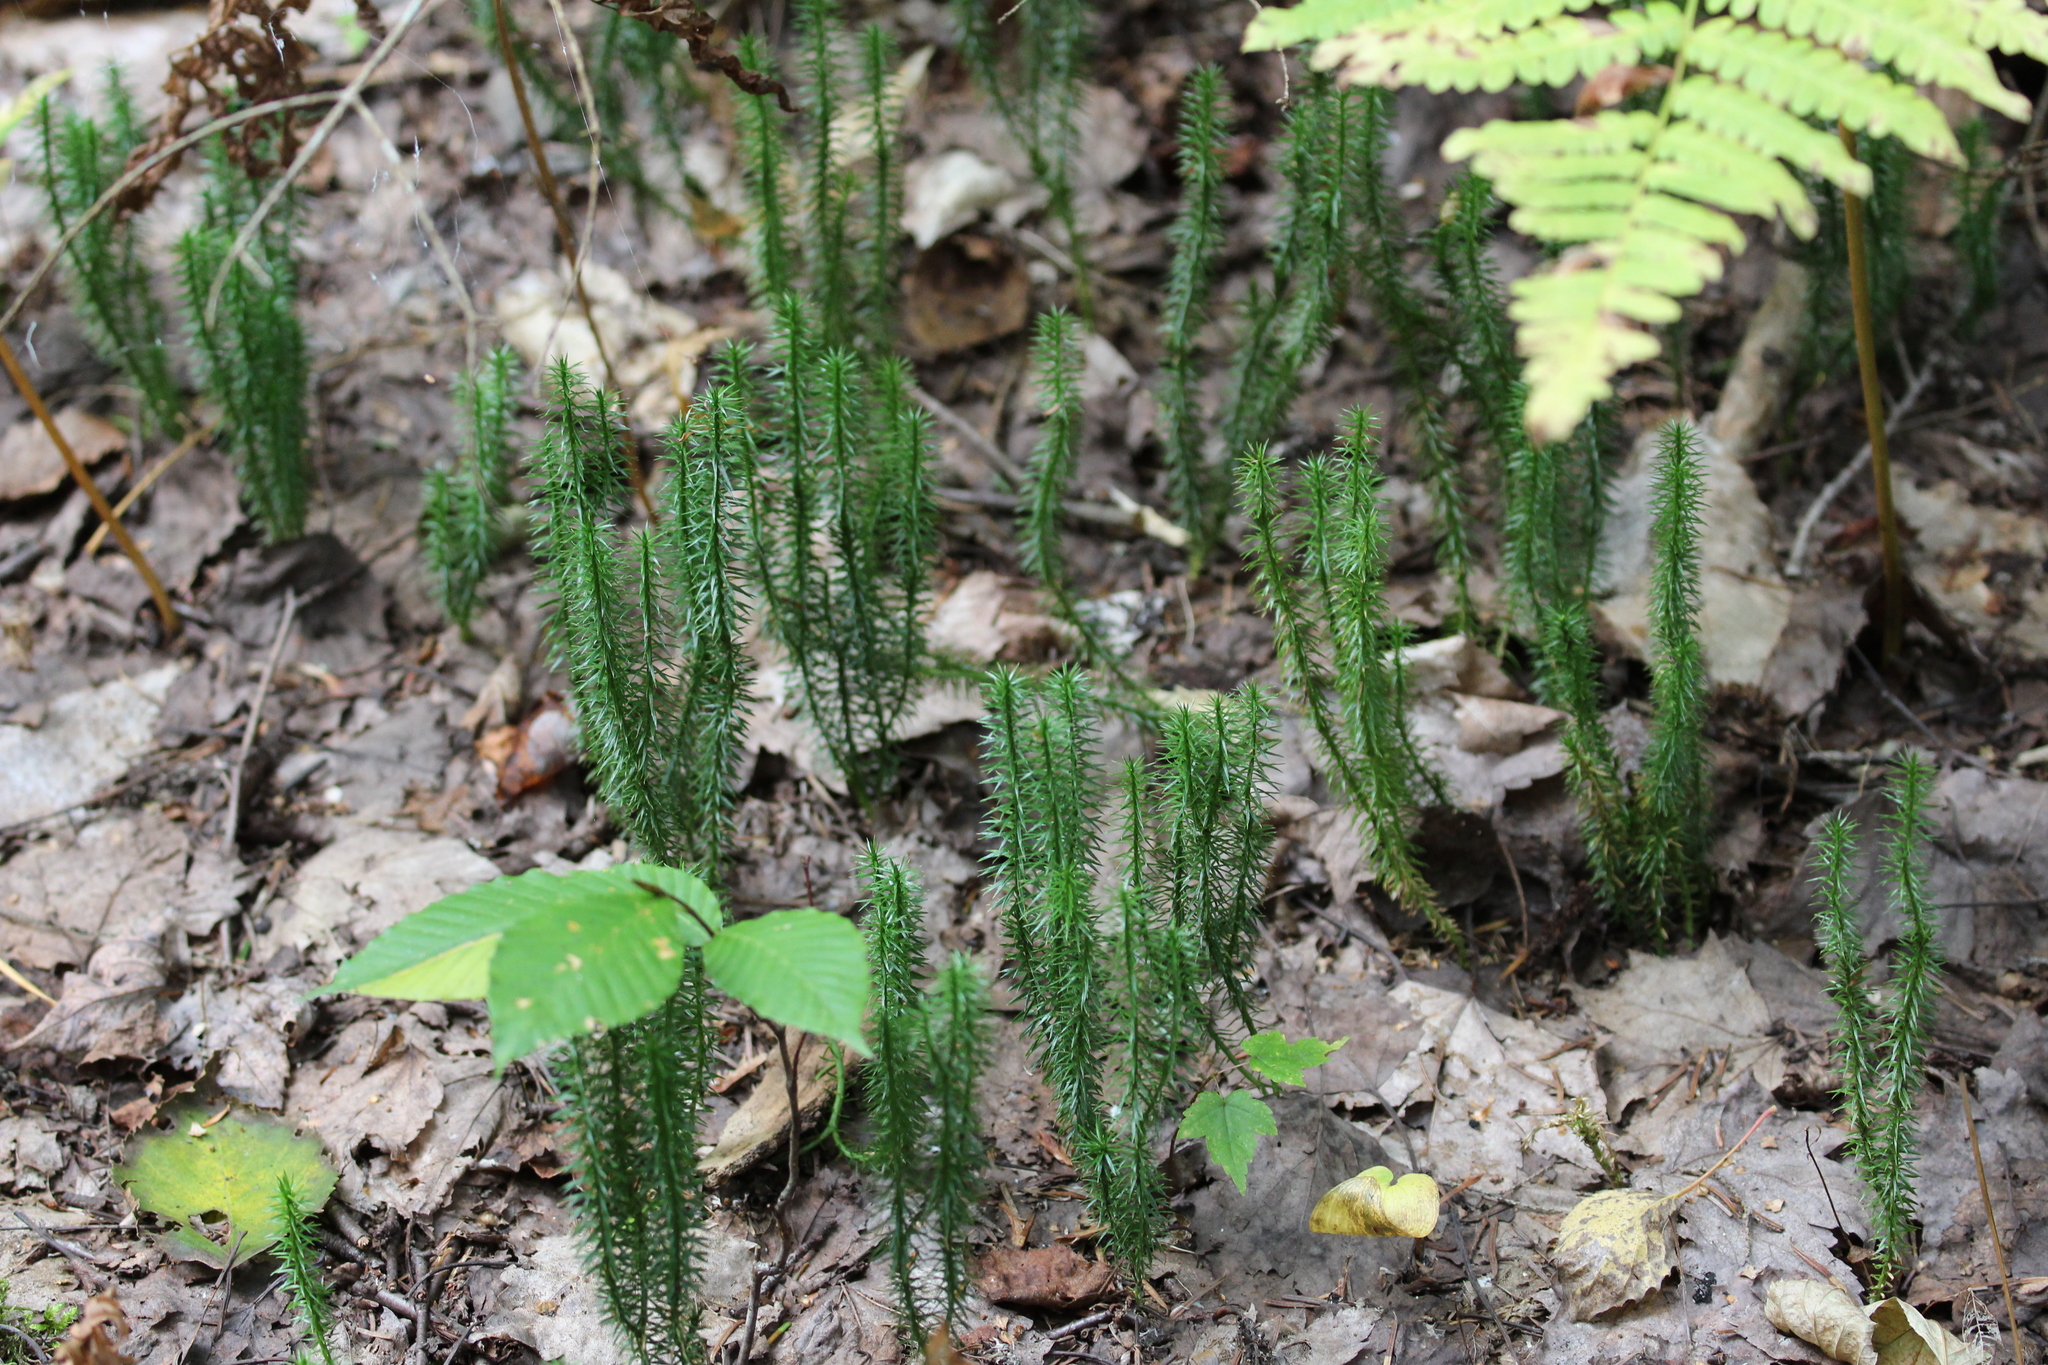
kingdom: Plantae
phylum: Tracheophyta
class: Lycopodiopsida
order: Lycopodiales
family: Lycopodiaceae
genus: Spinulum
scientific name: Spinulum annotinum
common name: Interrupted club-moss
